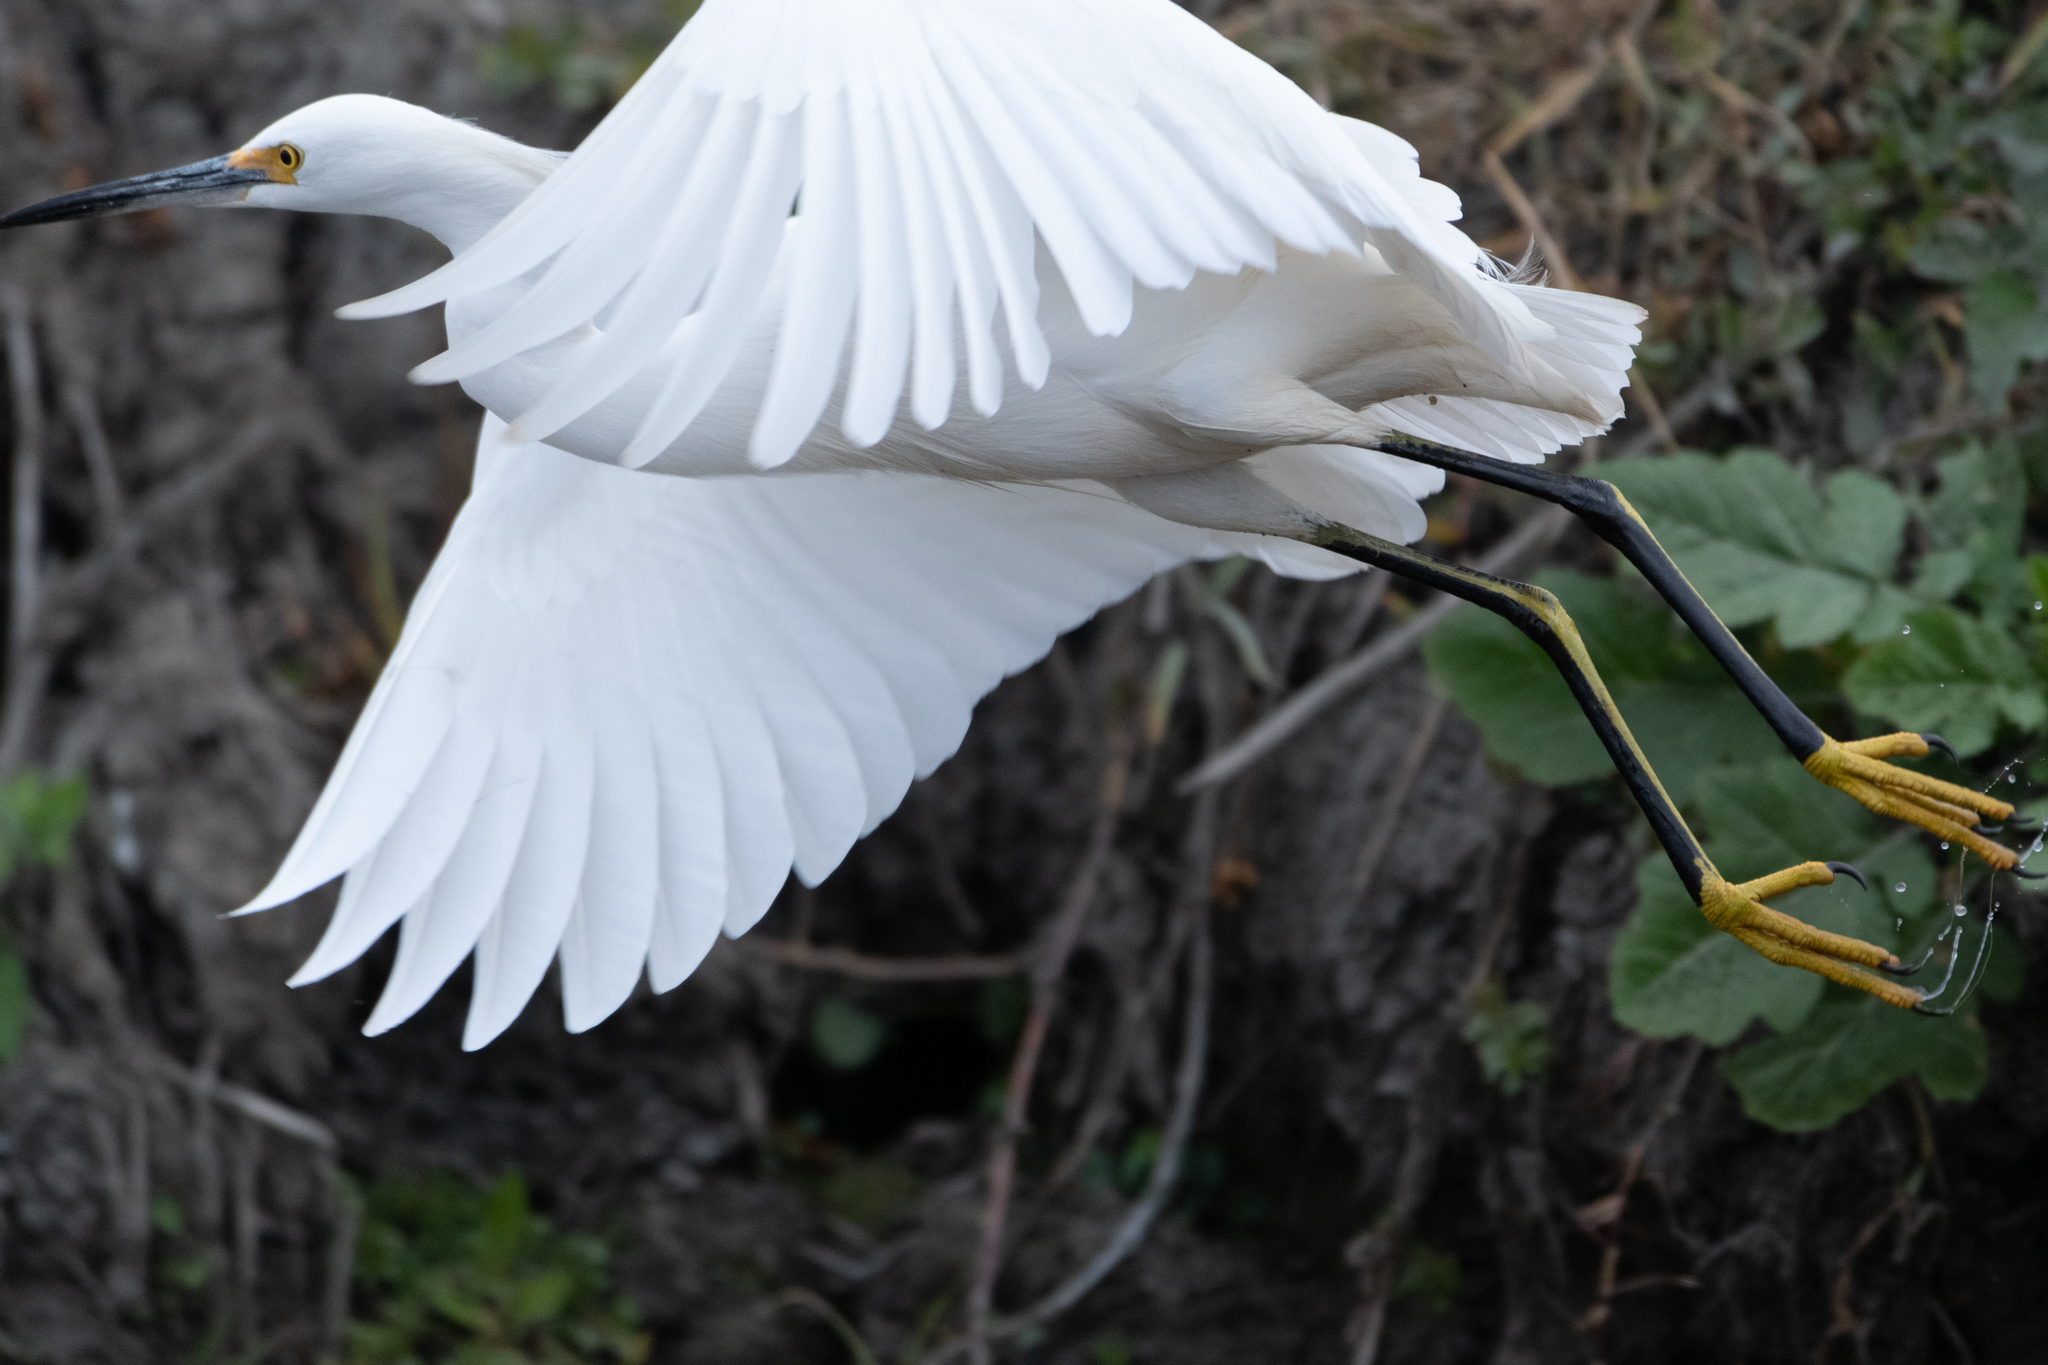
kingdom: Animalia
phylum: Chordata
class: Aves
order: Pelecaniformes
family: Ardeidae
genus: Egretta
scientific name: Egretta thula
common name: Snowy egret
